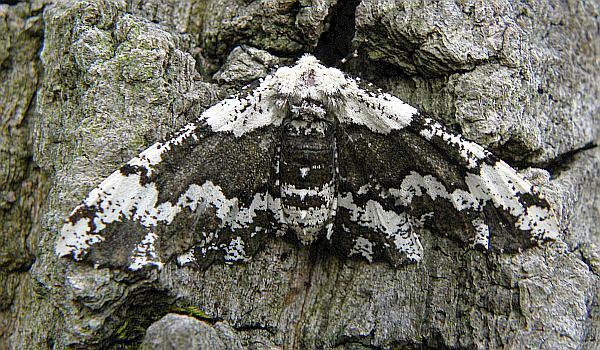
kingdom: Animalia
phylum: Arthropoda
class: Insecta
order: Lepidoptera
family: Geometridae
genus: Phaeoura
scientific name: Phaeoura quernaria
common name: Oak beauty
